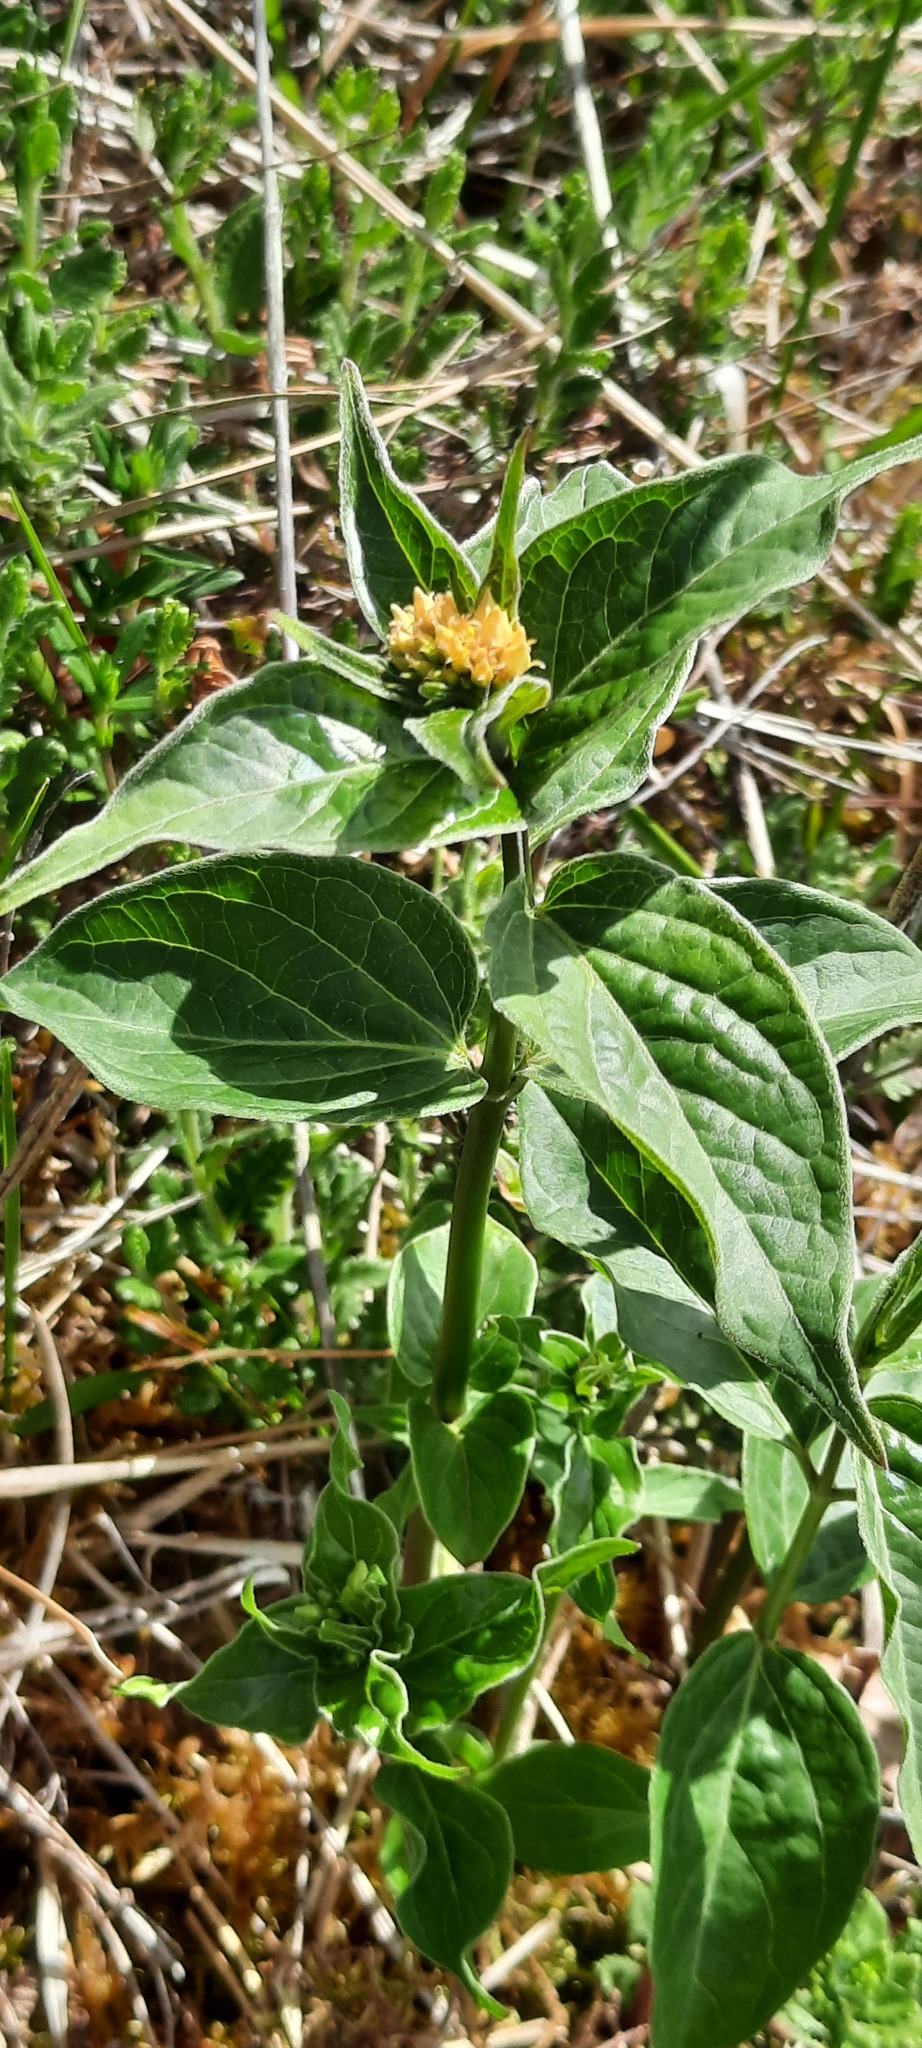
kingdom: Plantae
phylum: Tracheophyta
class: Magnoliopsida
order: Gentianales
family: Apocynaceae
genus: Vincetoxicum
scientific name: Vincetoxicum hirundinaria
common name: White swallowwort
